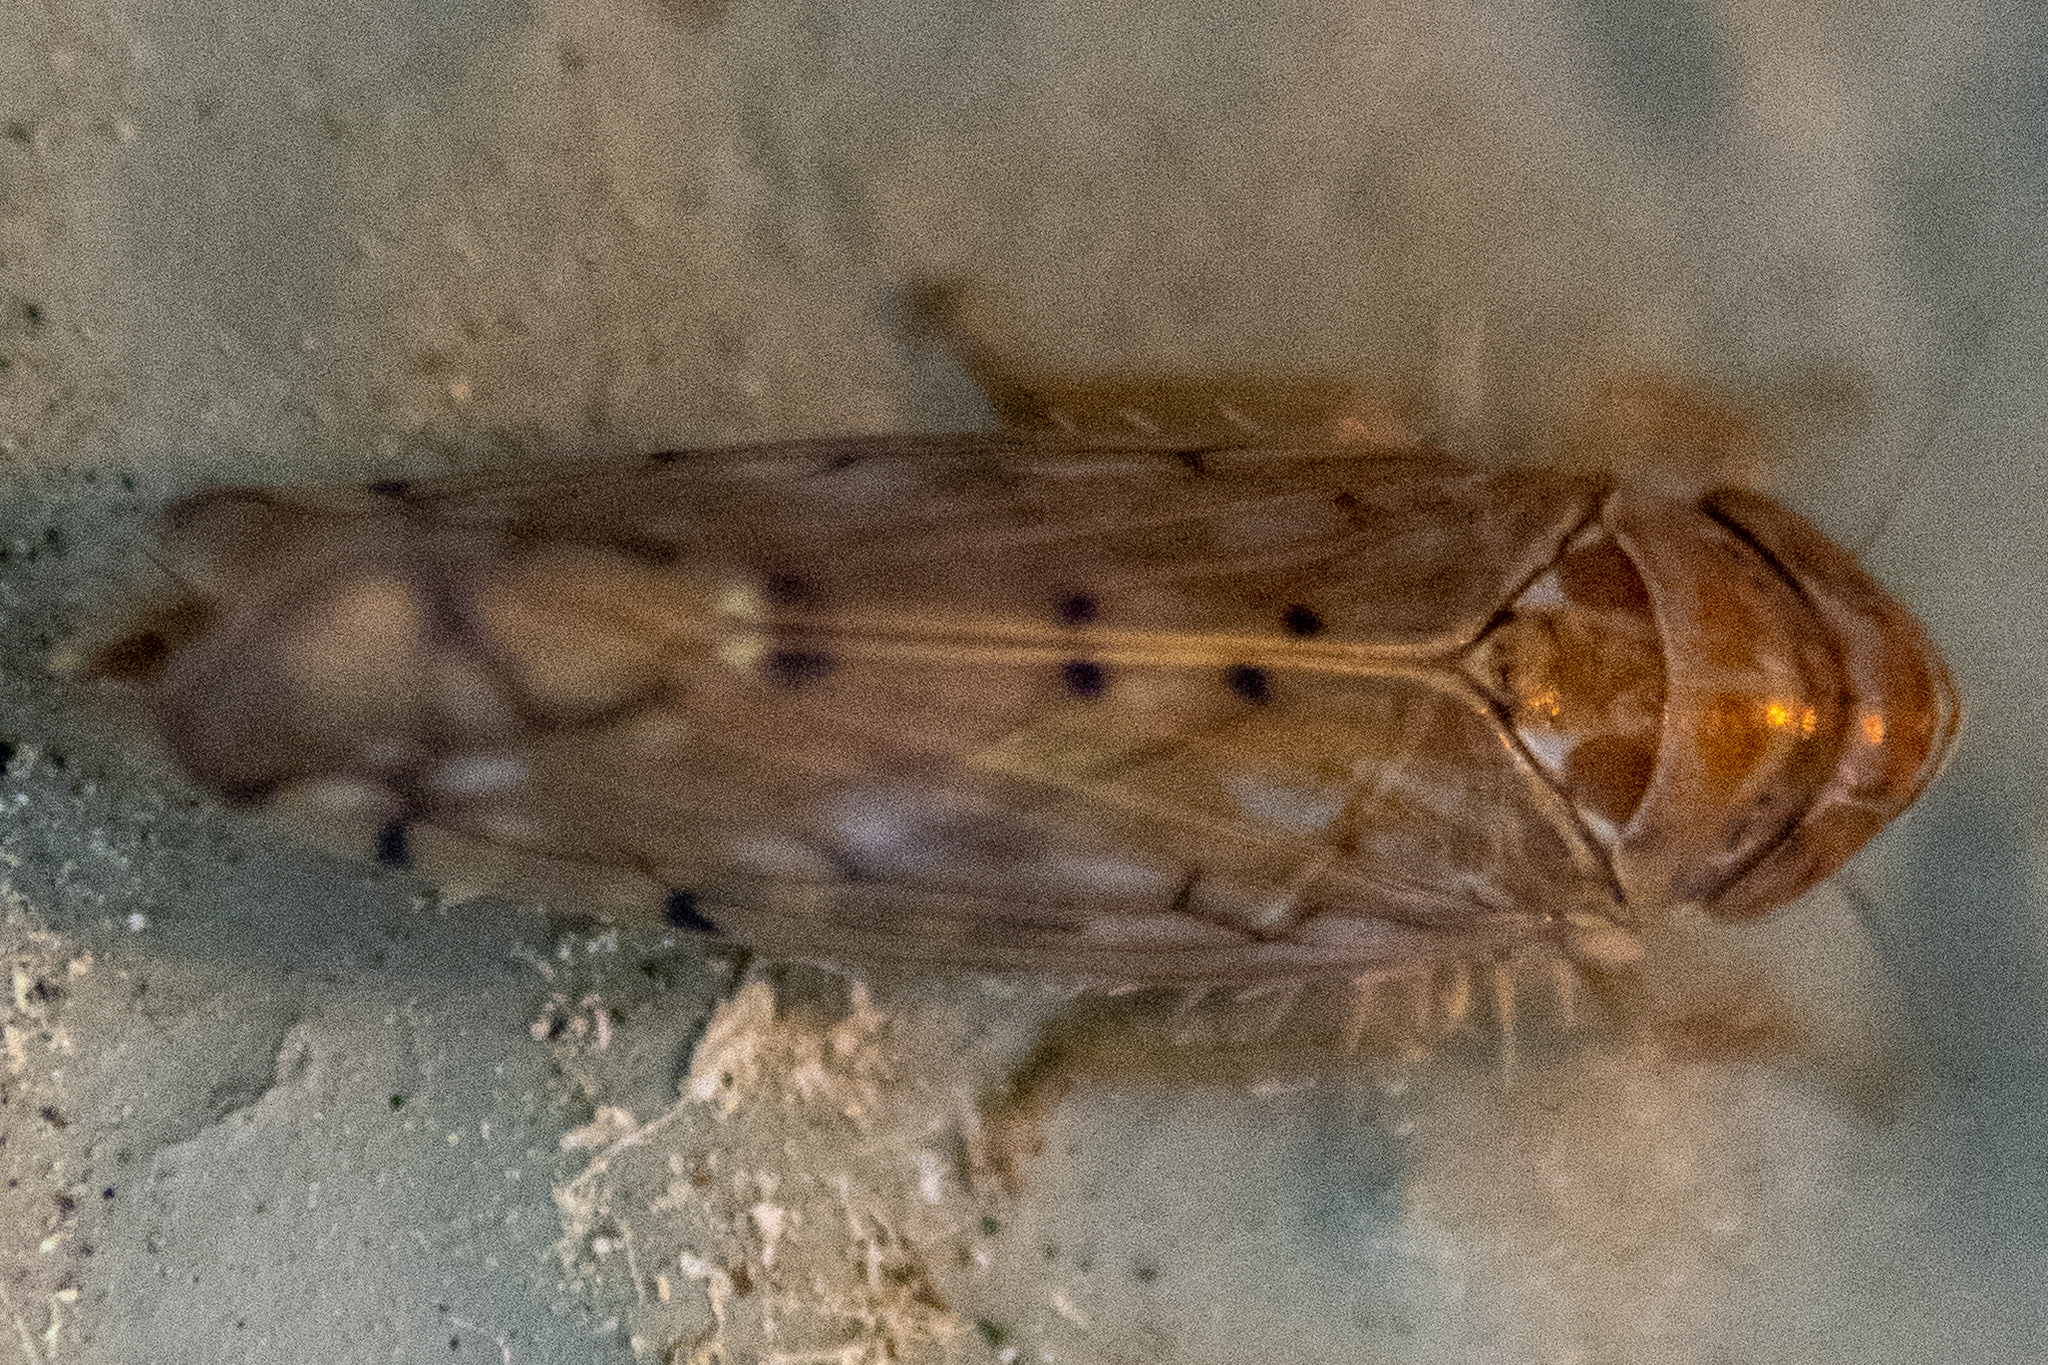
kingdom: Animalia
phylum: Arthropoda
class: Insecta
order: Hemiptera
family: Cicadellidae
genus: Osbornellus
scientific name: Osbornellus
